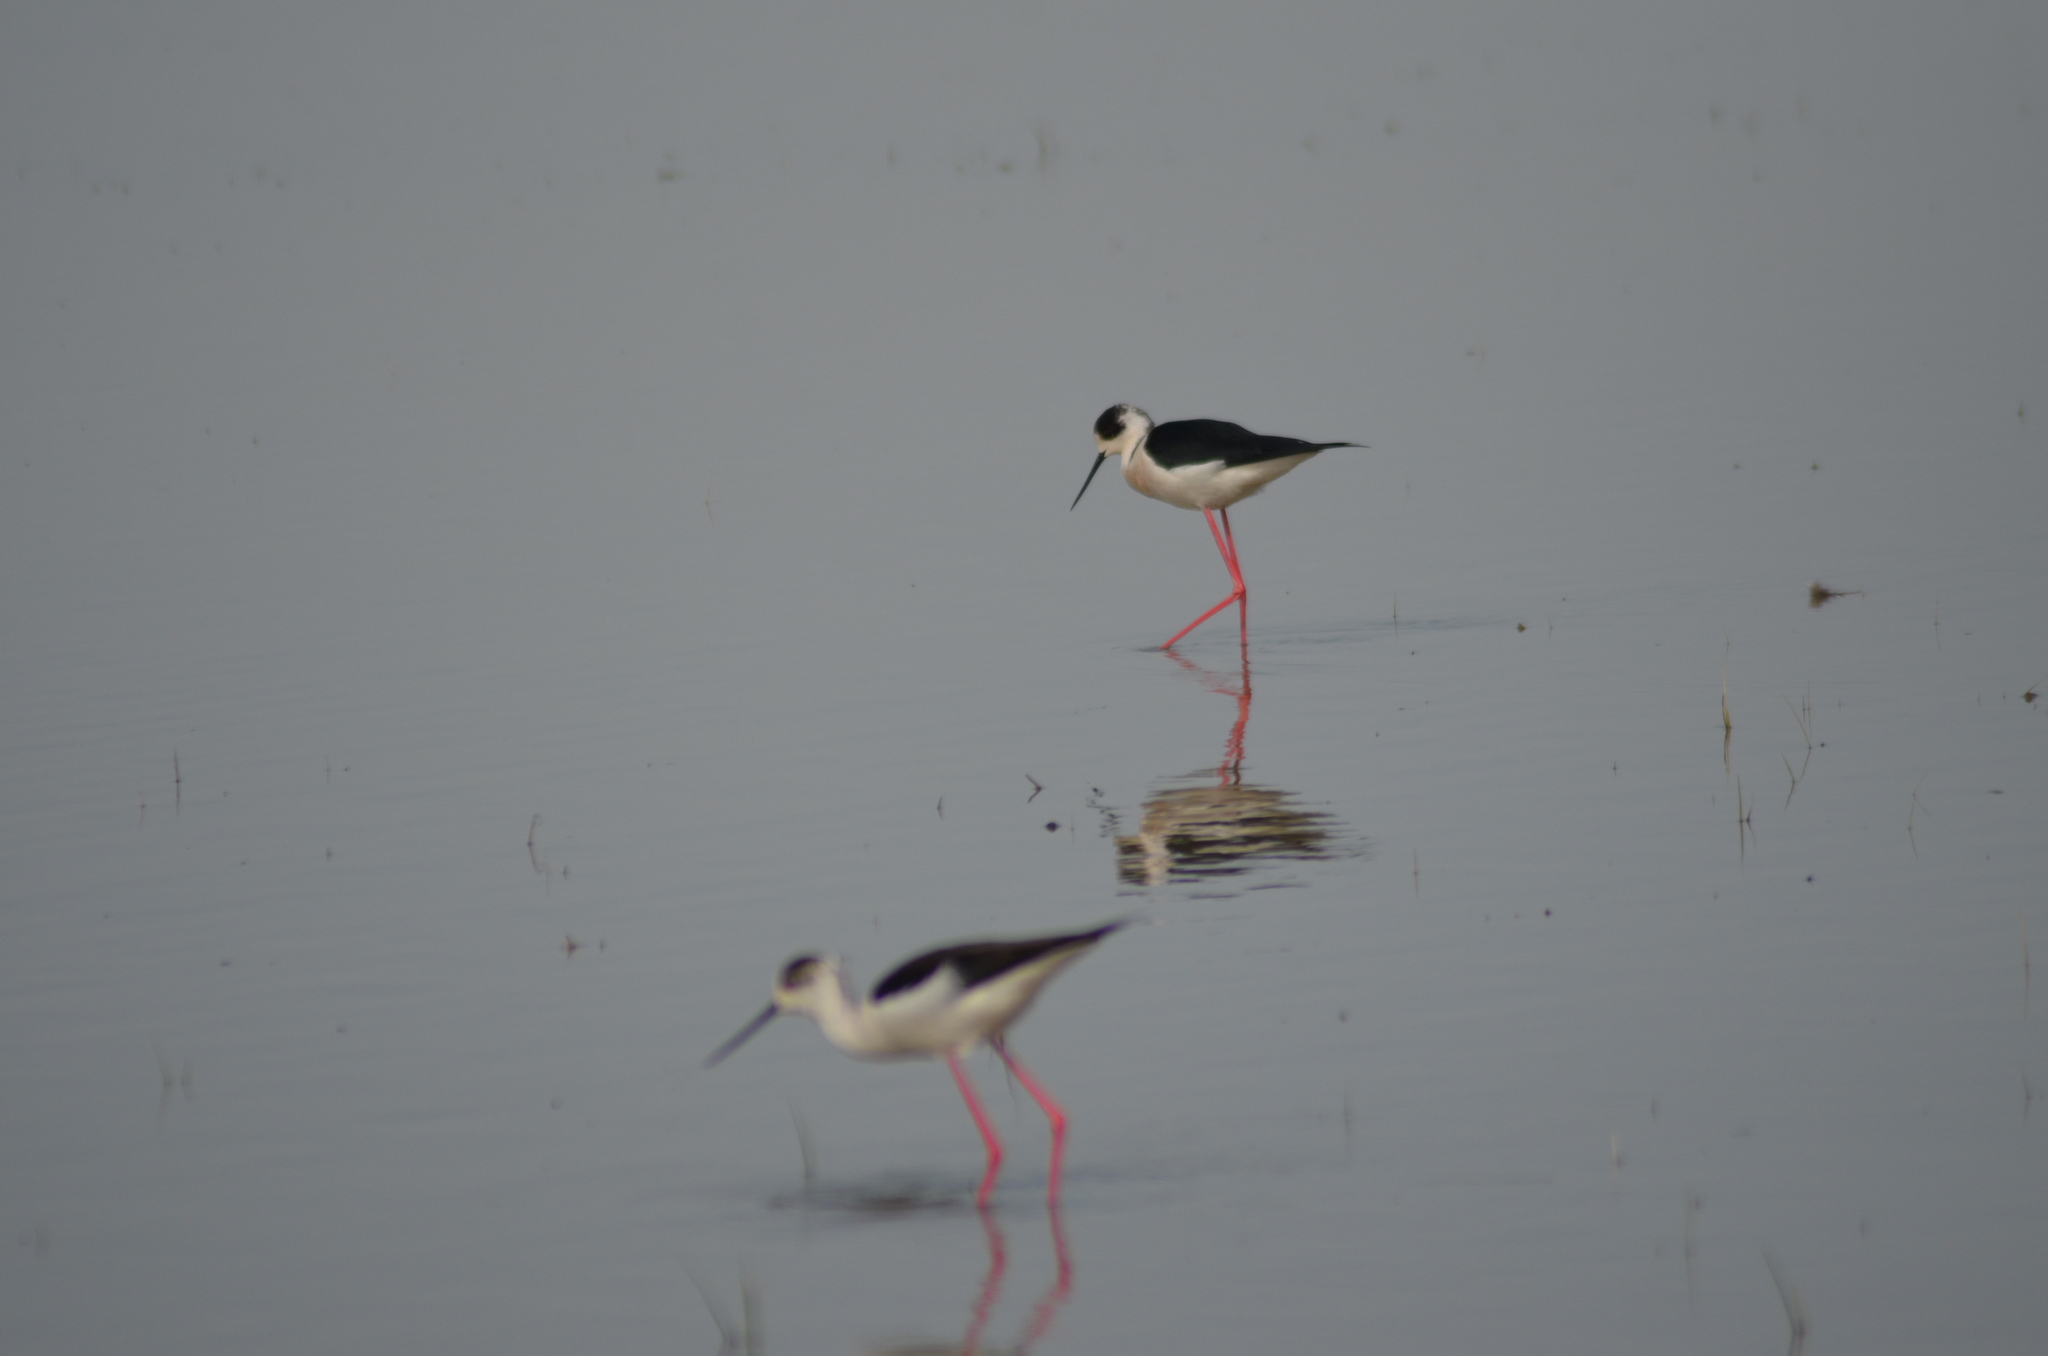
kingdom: Animalia
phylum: Chordata
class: Aves
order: Charadriiformes
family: Recurvirostridae
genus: Himantopus
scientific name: Himantopus himantopus
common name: Black-winged stilt
